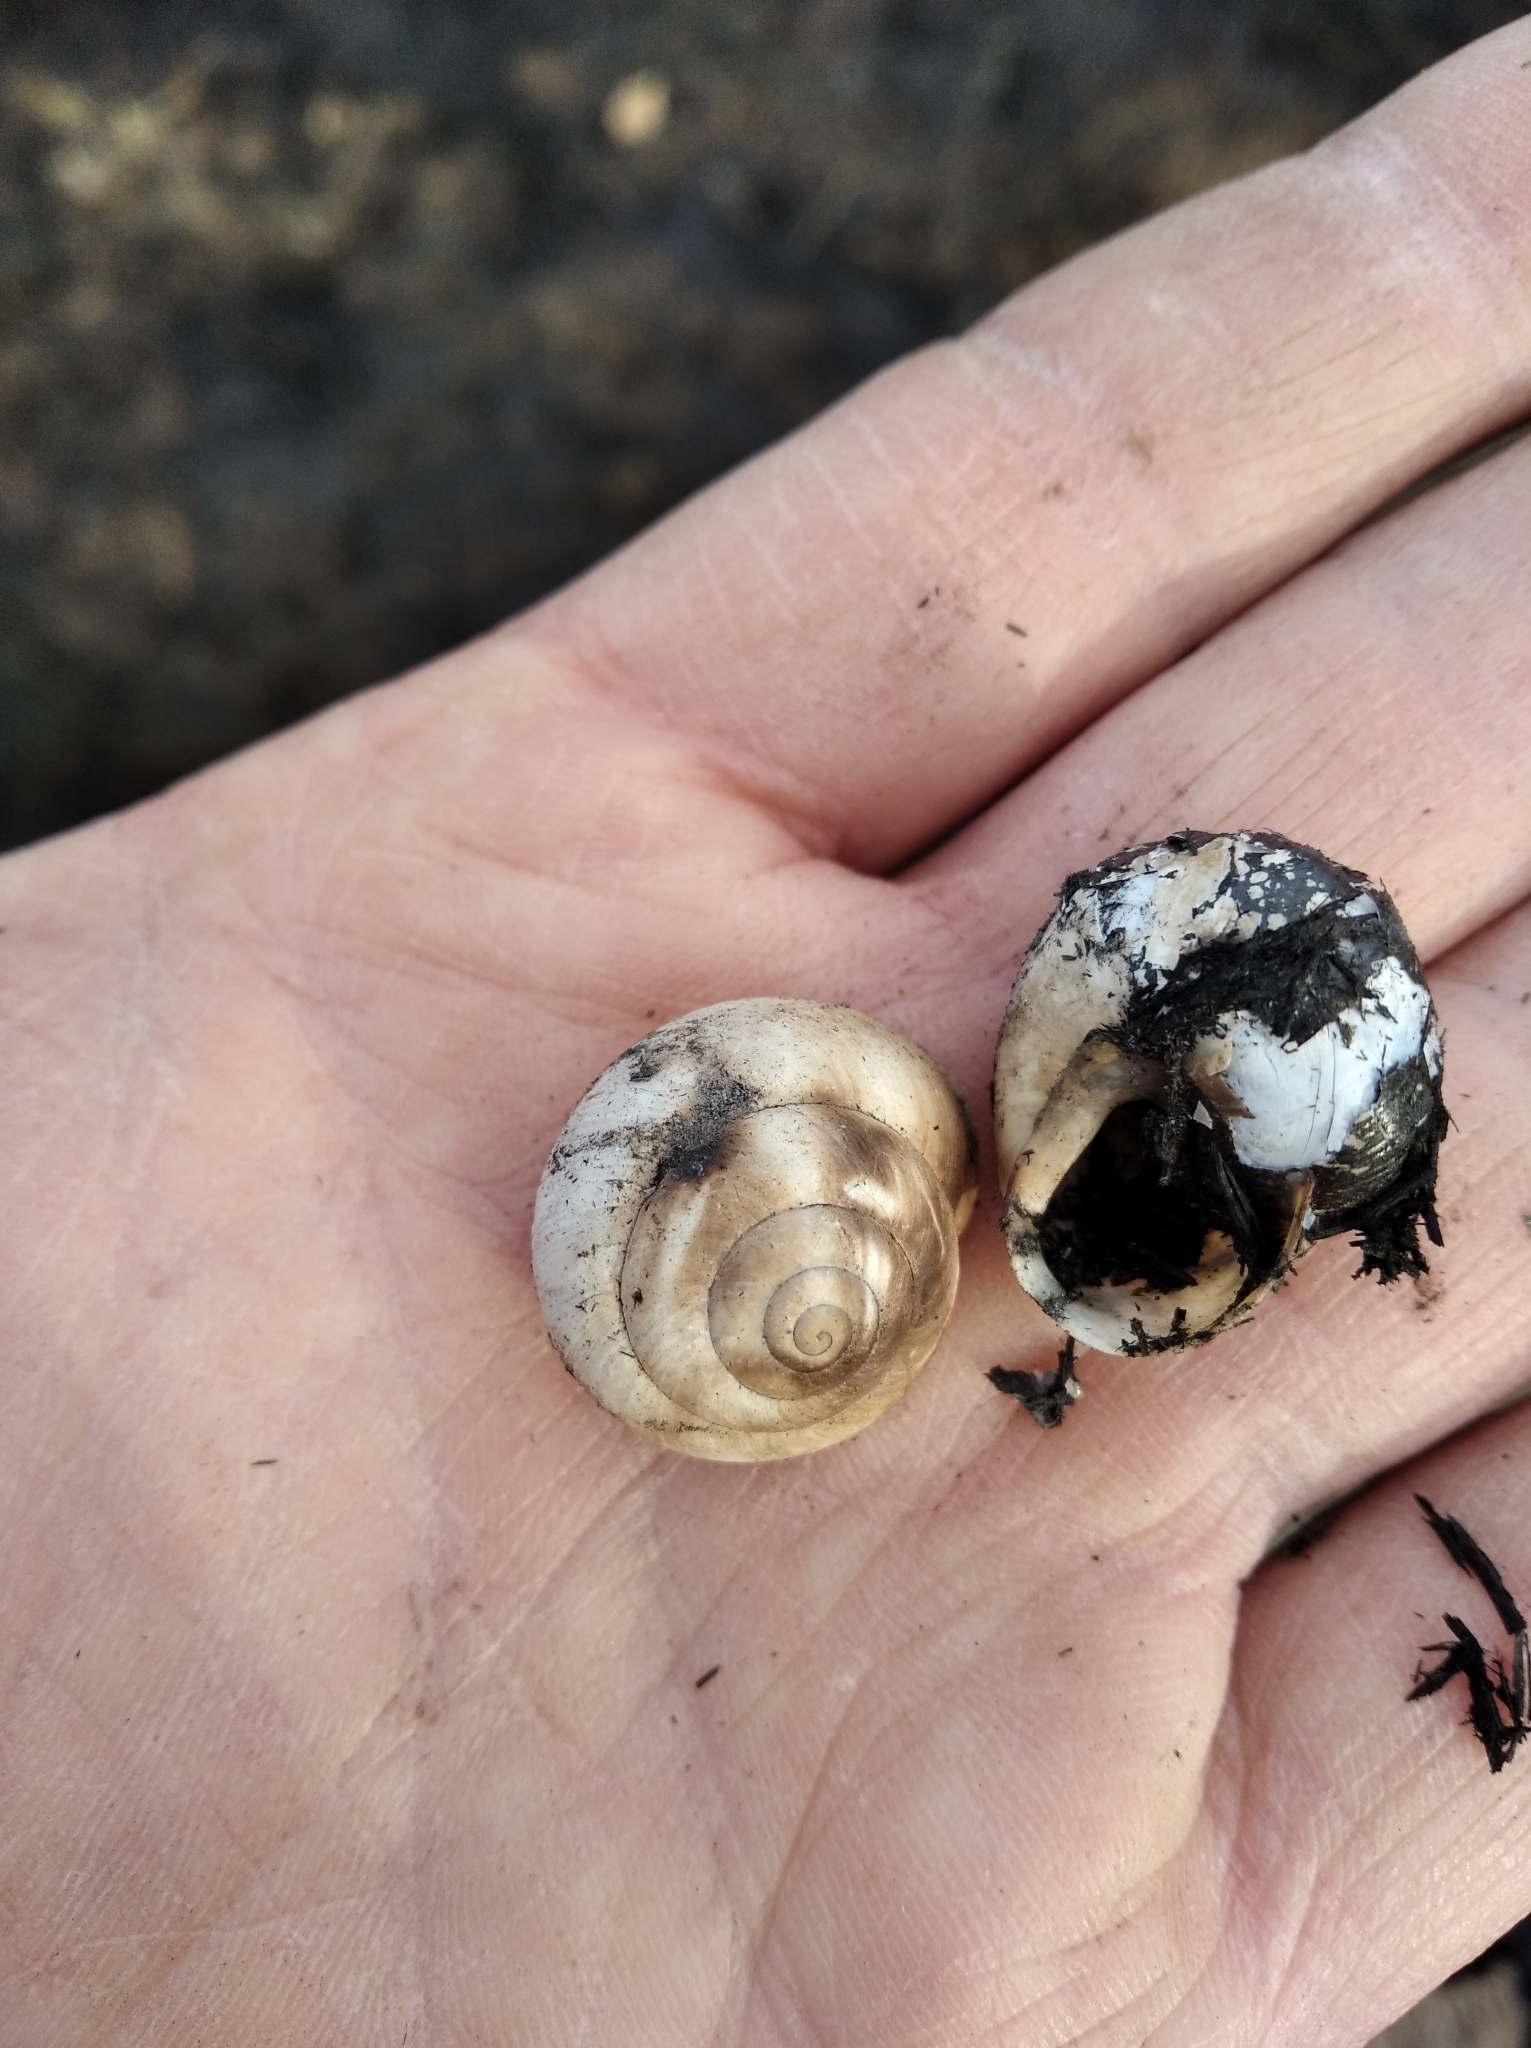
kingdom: Animalia
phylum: Mollusca
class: Gastropoda
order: Stylommatophora
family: Helicidae
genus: Caucasotachea
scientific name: Caucasotachea vindobonensis
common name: European helicid land snail
